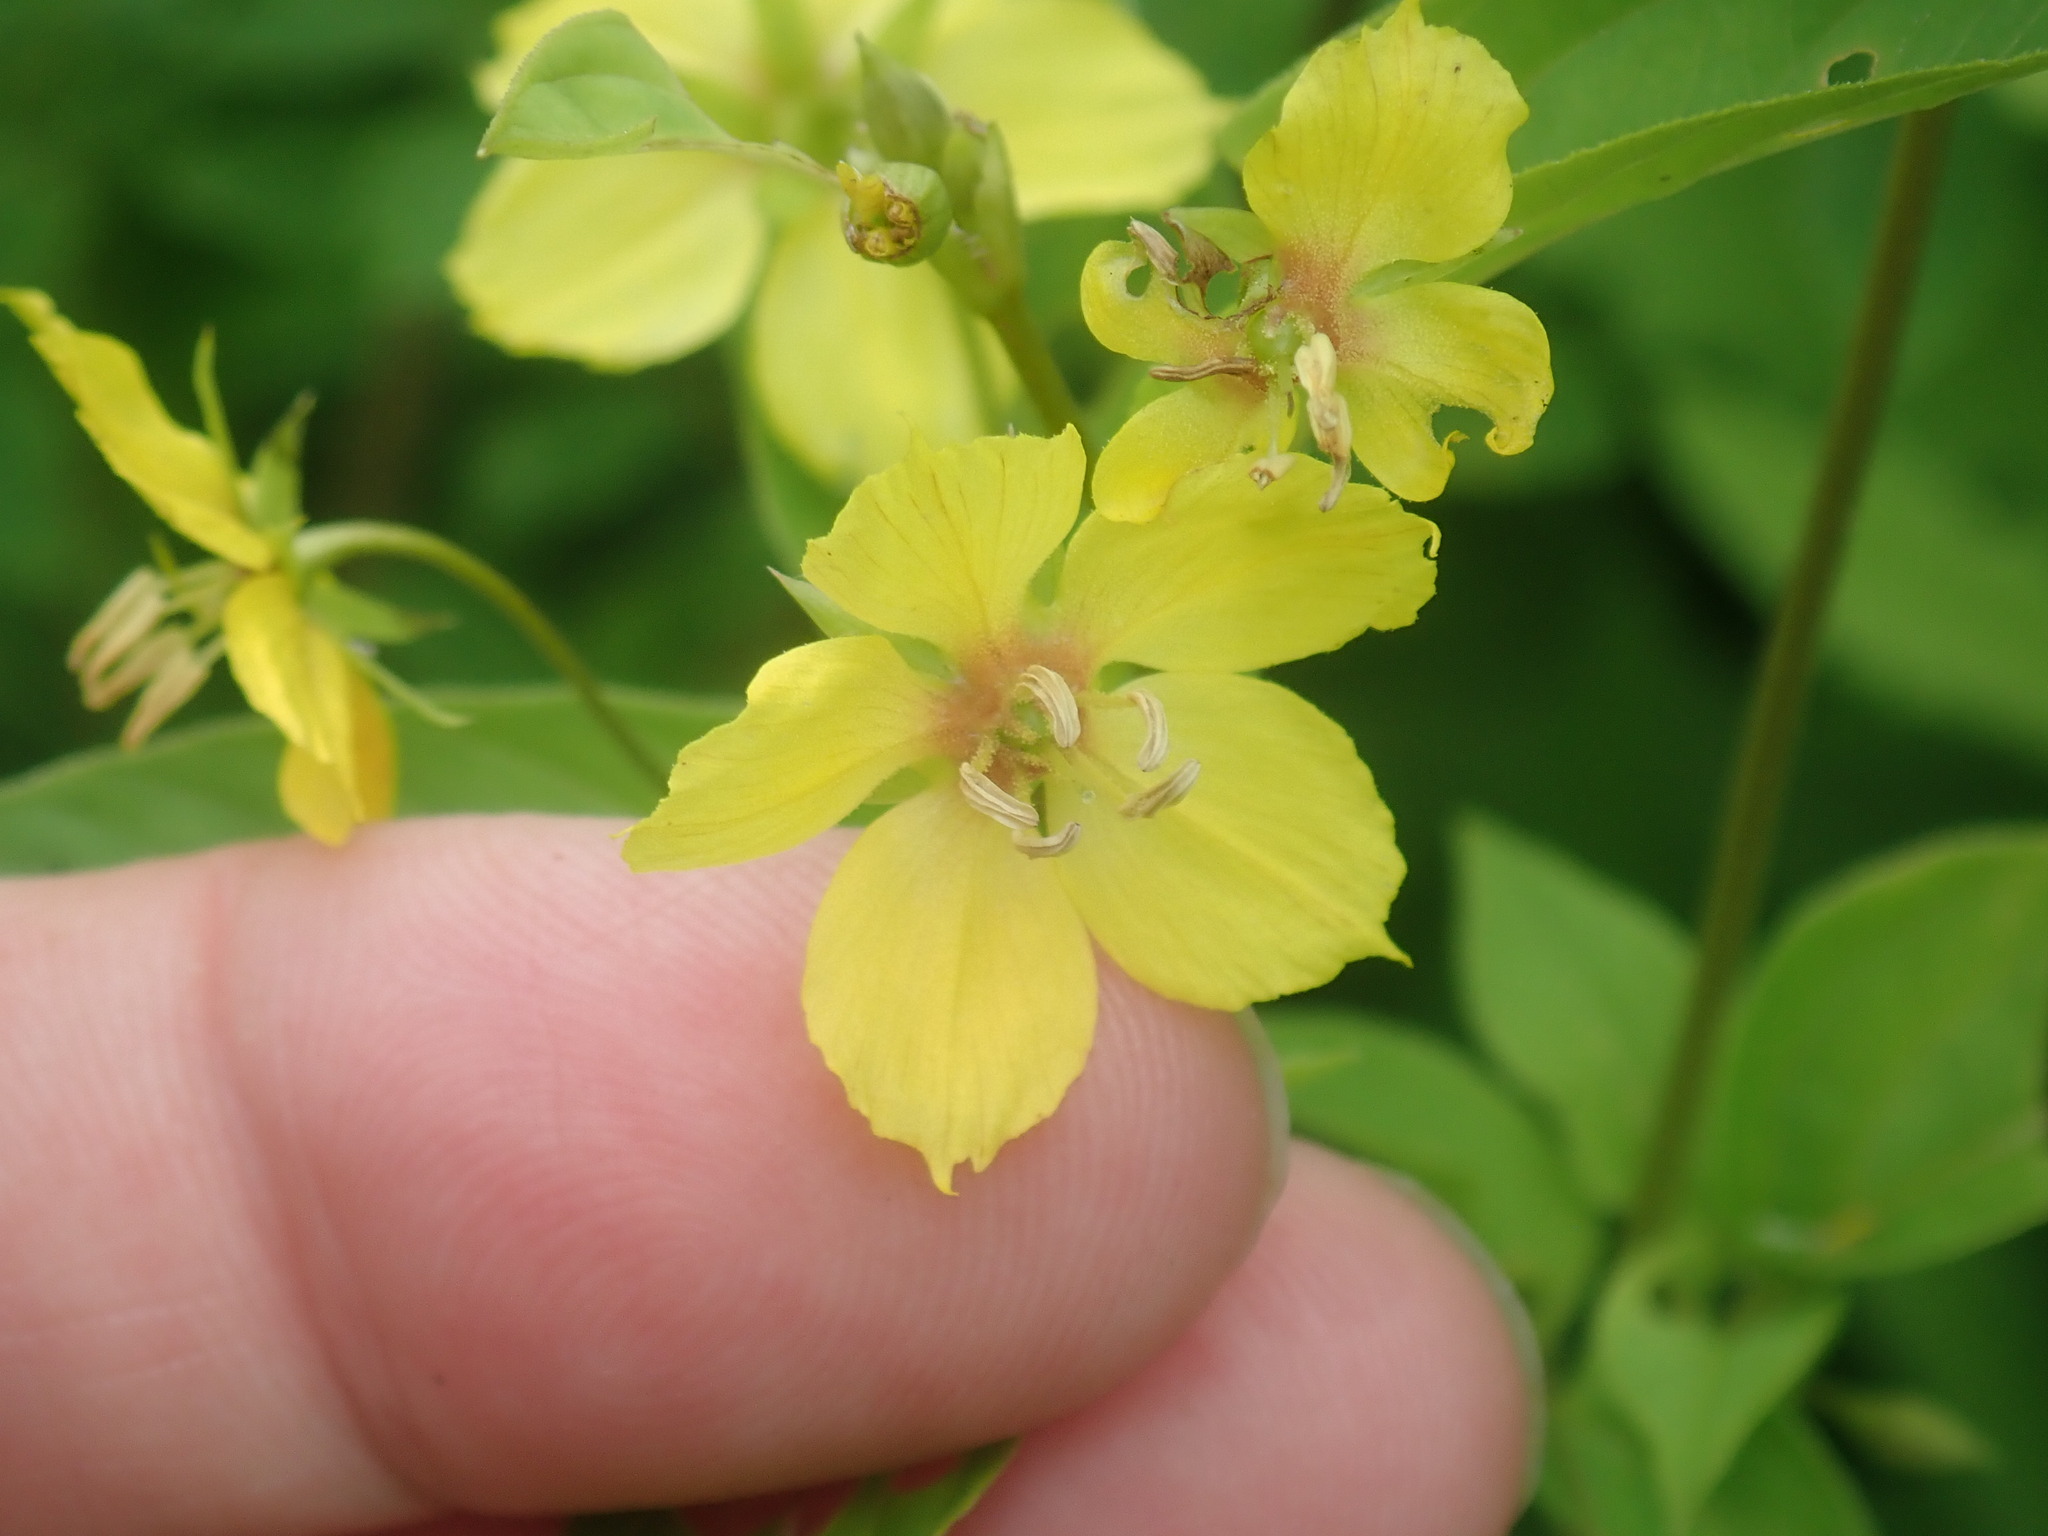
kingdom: Plantae
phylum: Tracheophyta
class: Magnoliopsida
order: Ericales
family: Primulaceae
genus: Lysimachia
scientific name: Lysimachia ciliata
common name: Fringed loosestrife
